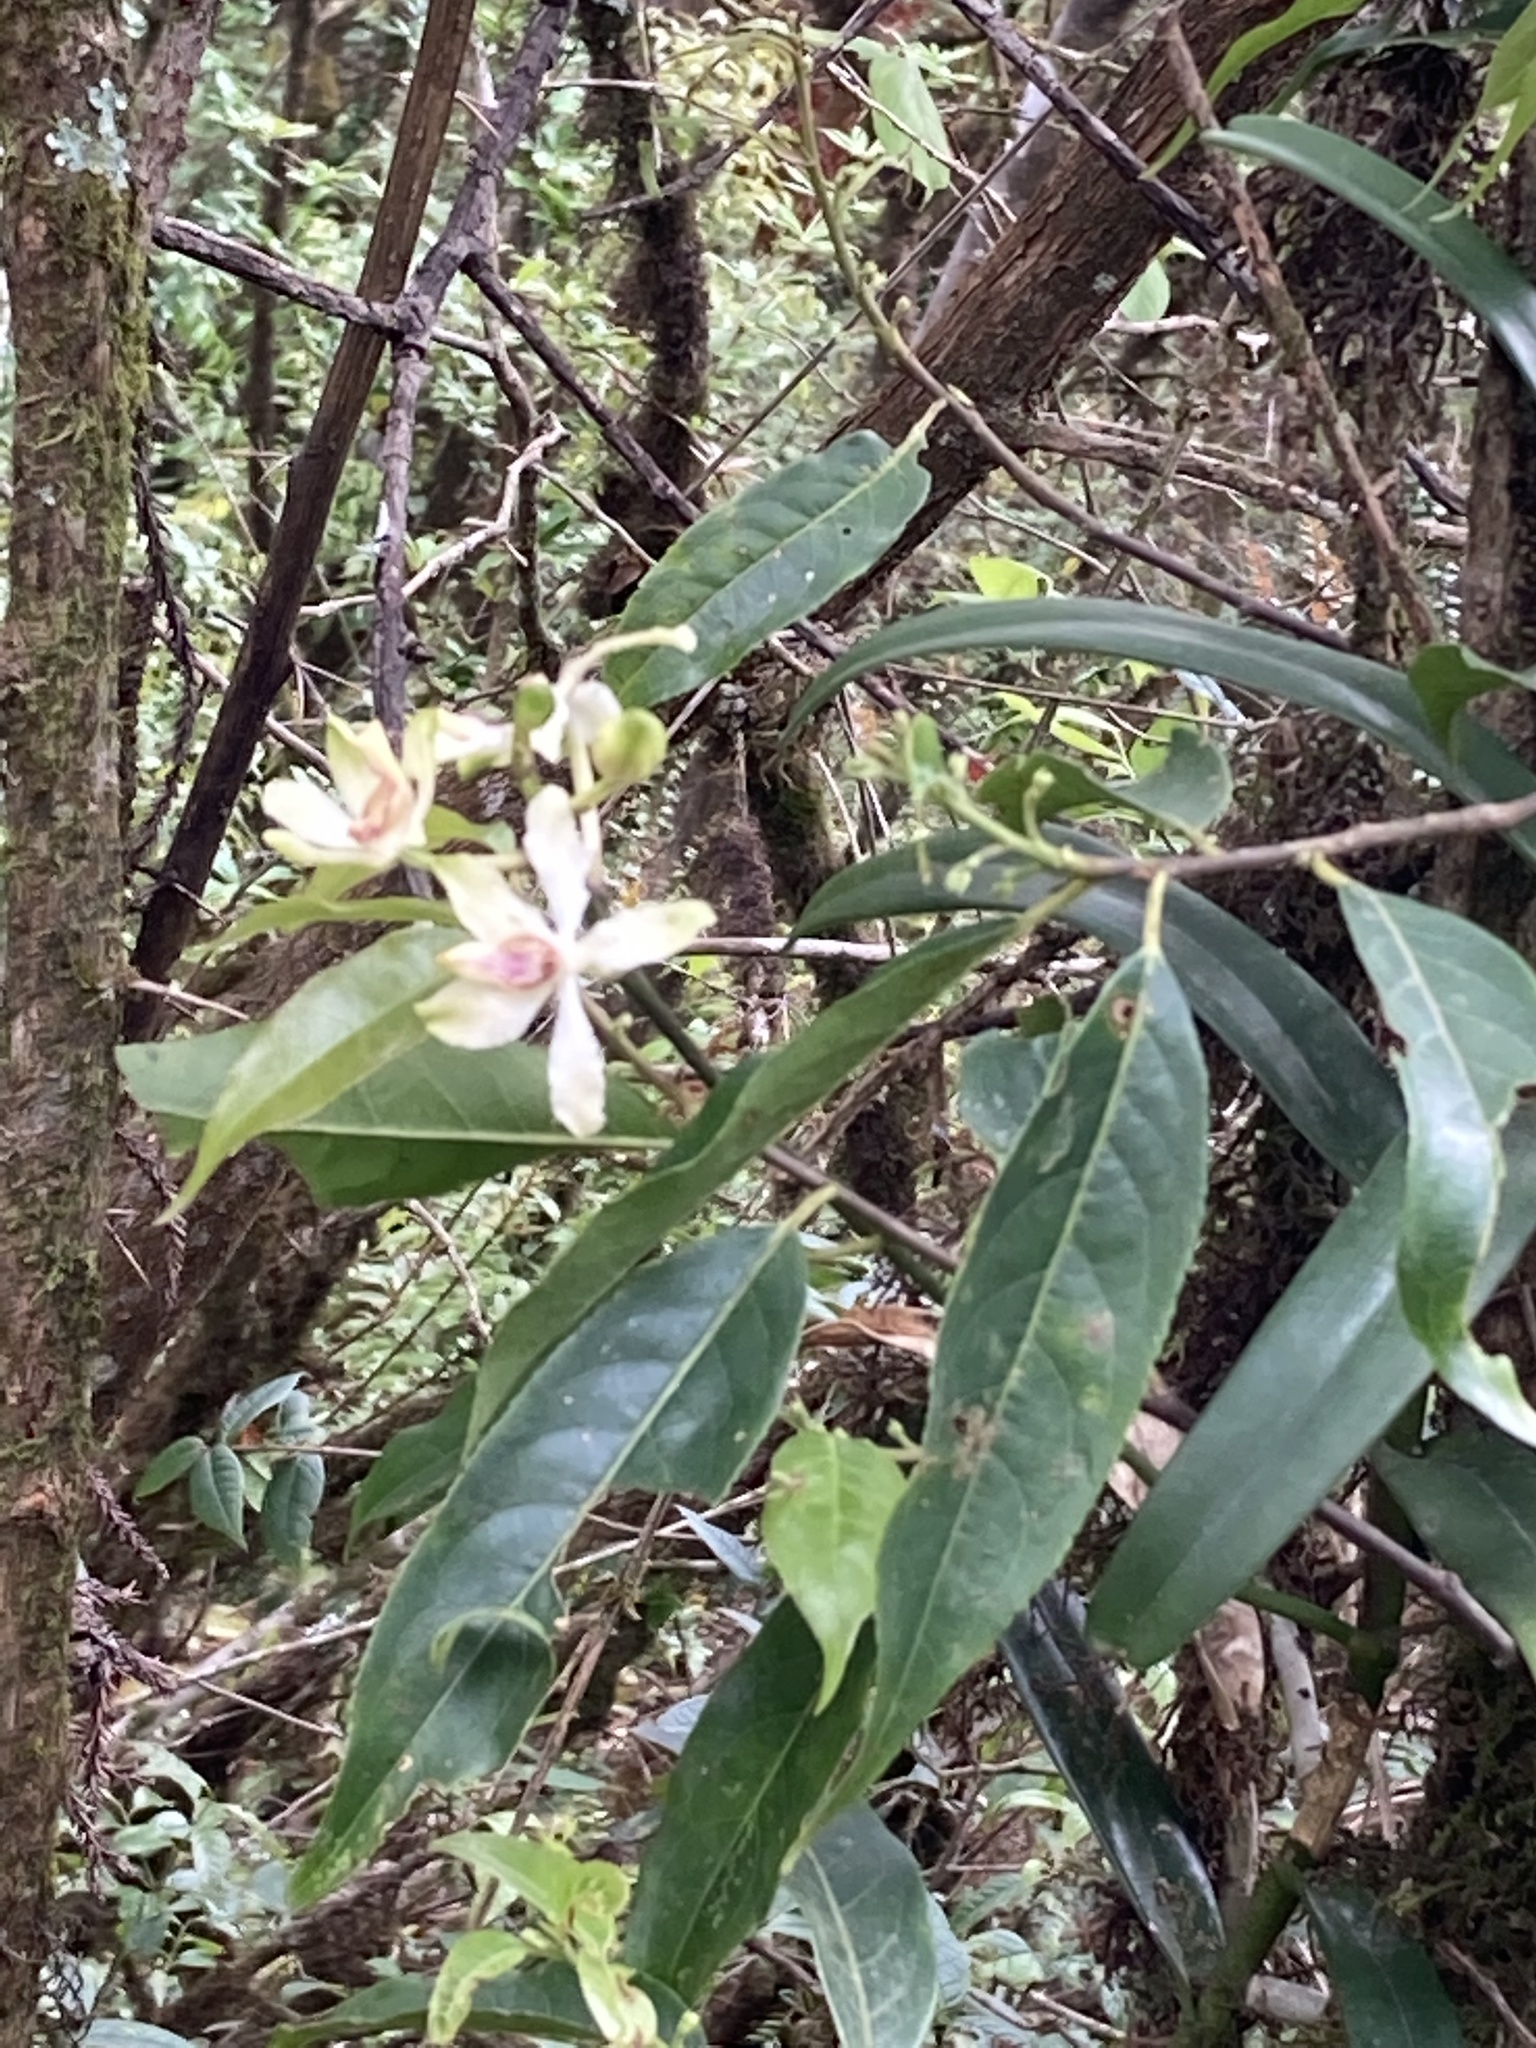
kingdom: Plantae
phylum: Tracheophyta
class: Liliopsida
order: Asparagales
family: Orchidaceae
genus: Cymbilabia
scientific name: Cymbilabia undulata
